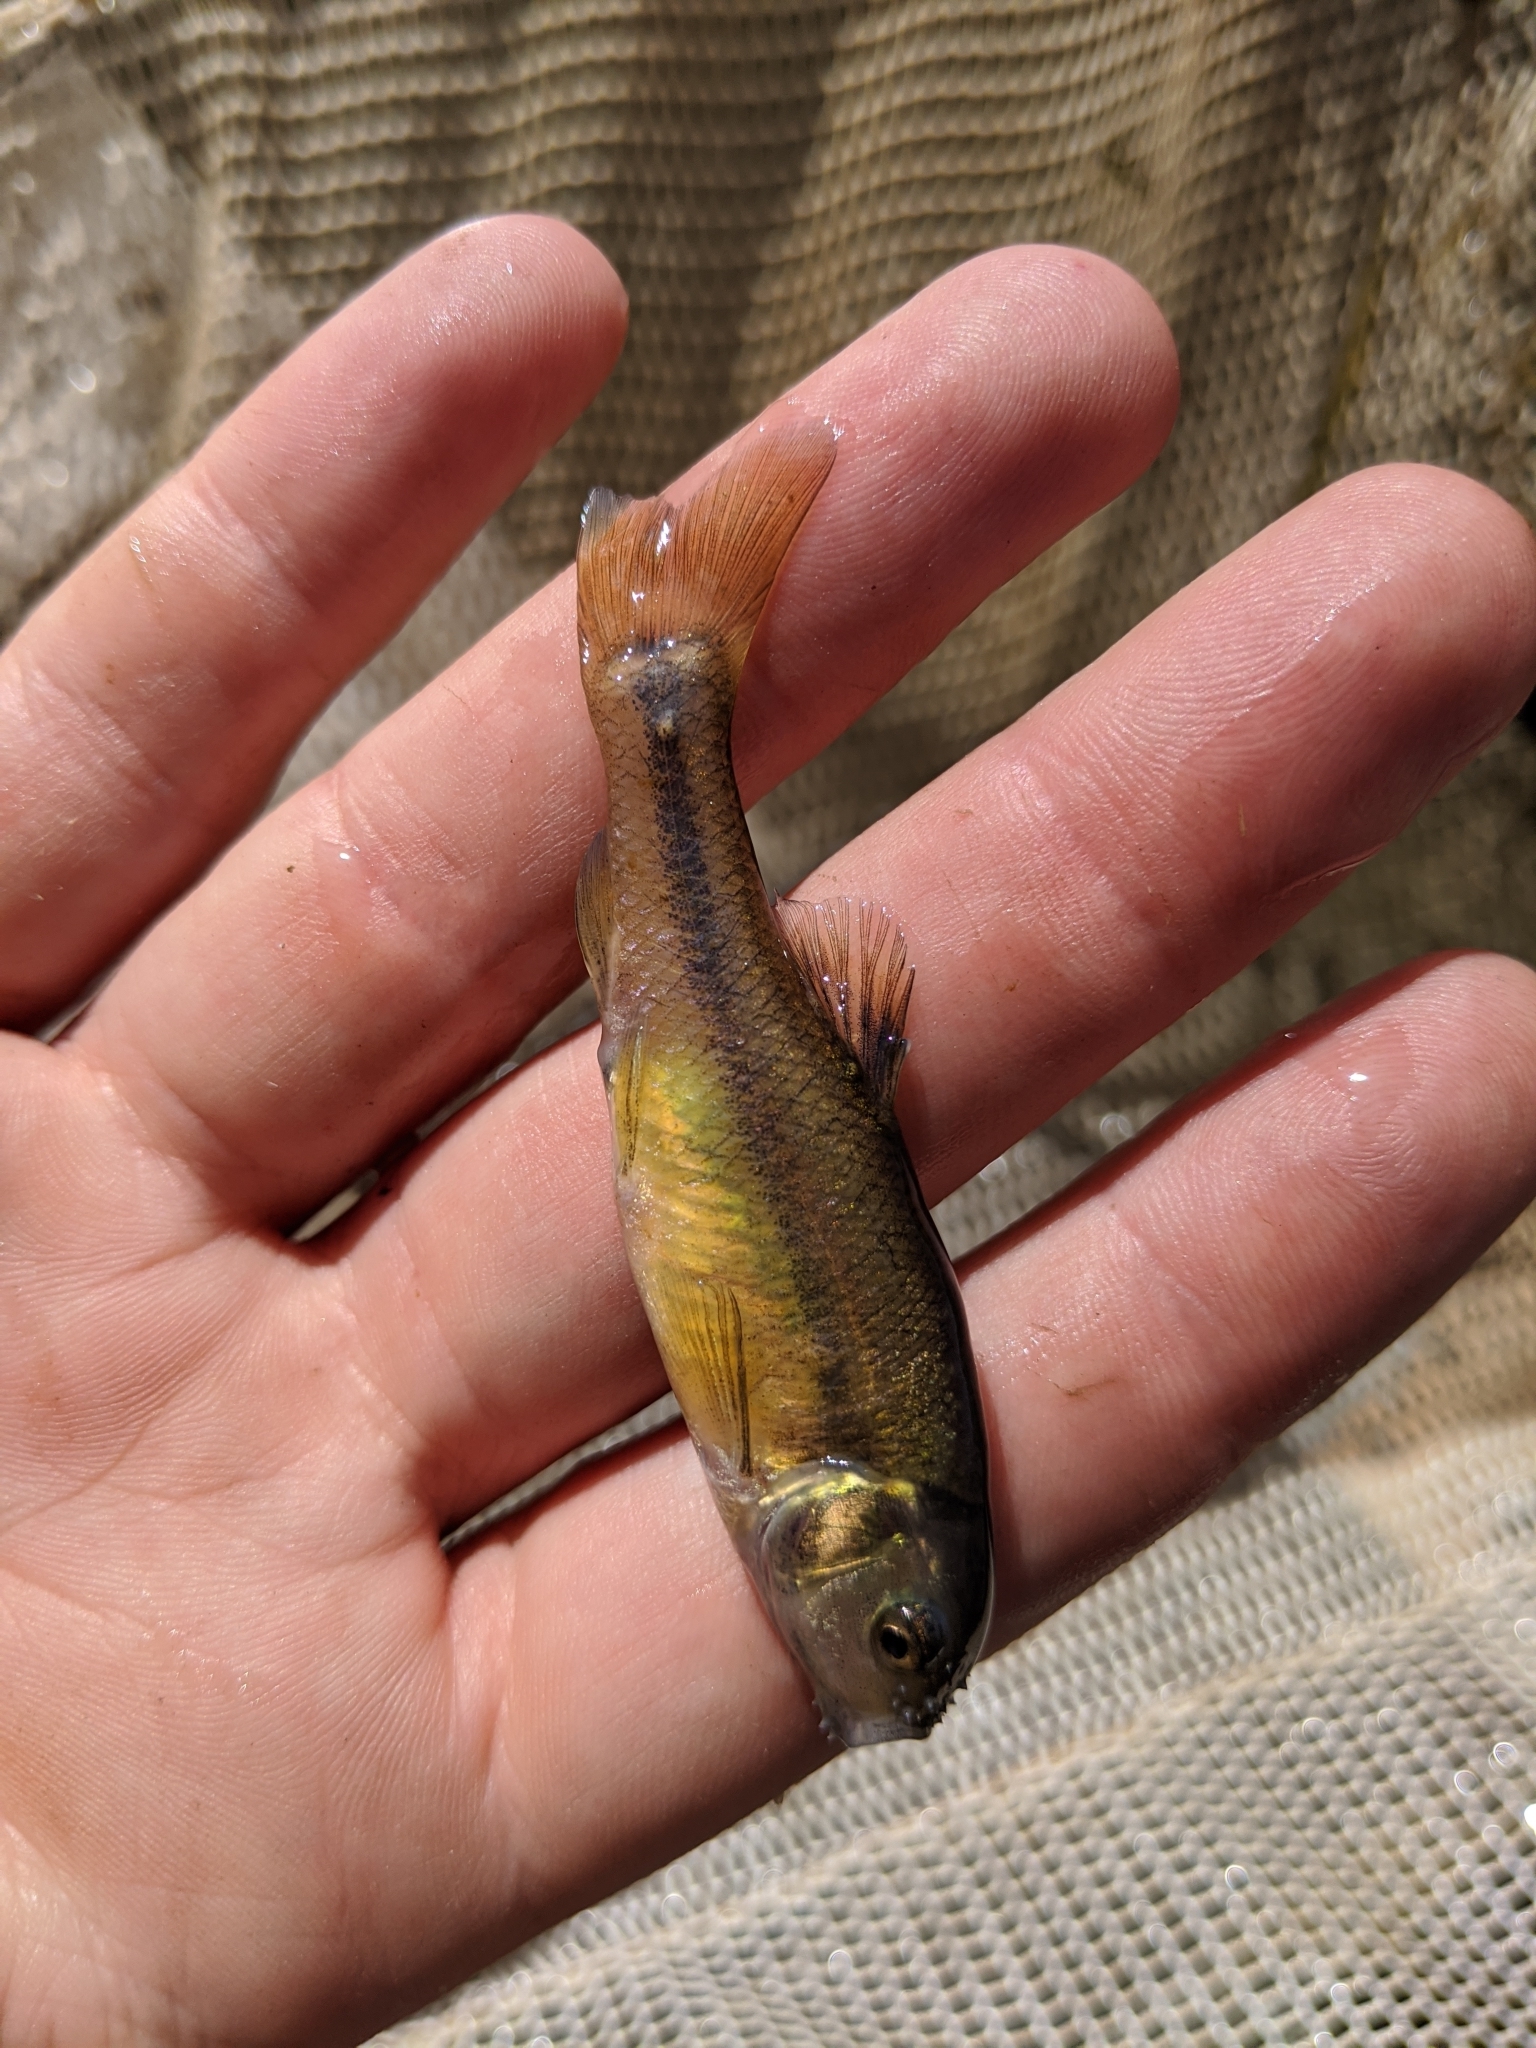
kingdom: Animalia
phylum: Chordata
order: Cypriniformes
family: Cyprinidae
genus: Pimephales
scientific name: Pimephales promelas
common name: Fathead minnow
